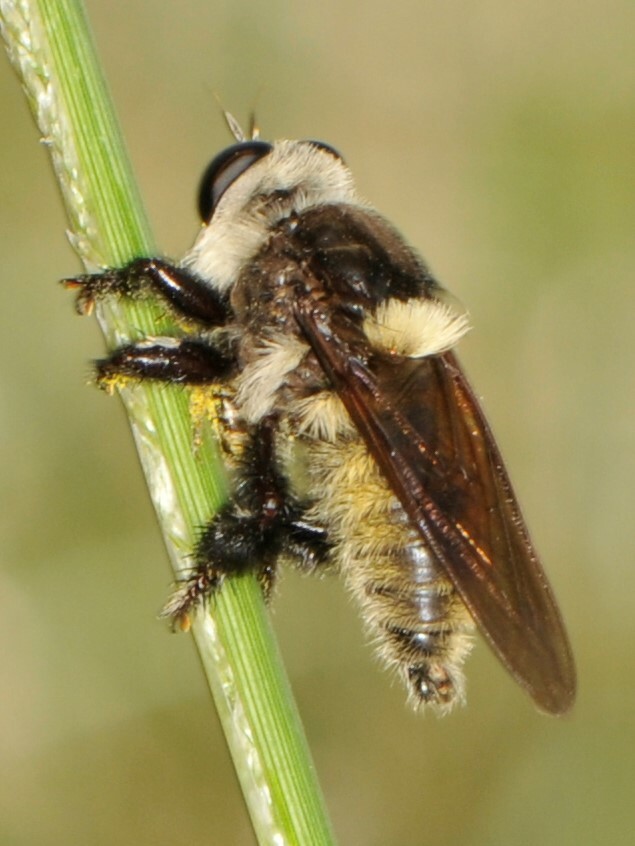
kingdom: Animalia
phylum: Arthropoda
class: Insecta
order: Diptera
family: Asilidae
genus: Mallophora
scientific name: Mallophora fautrix
